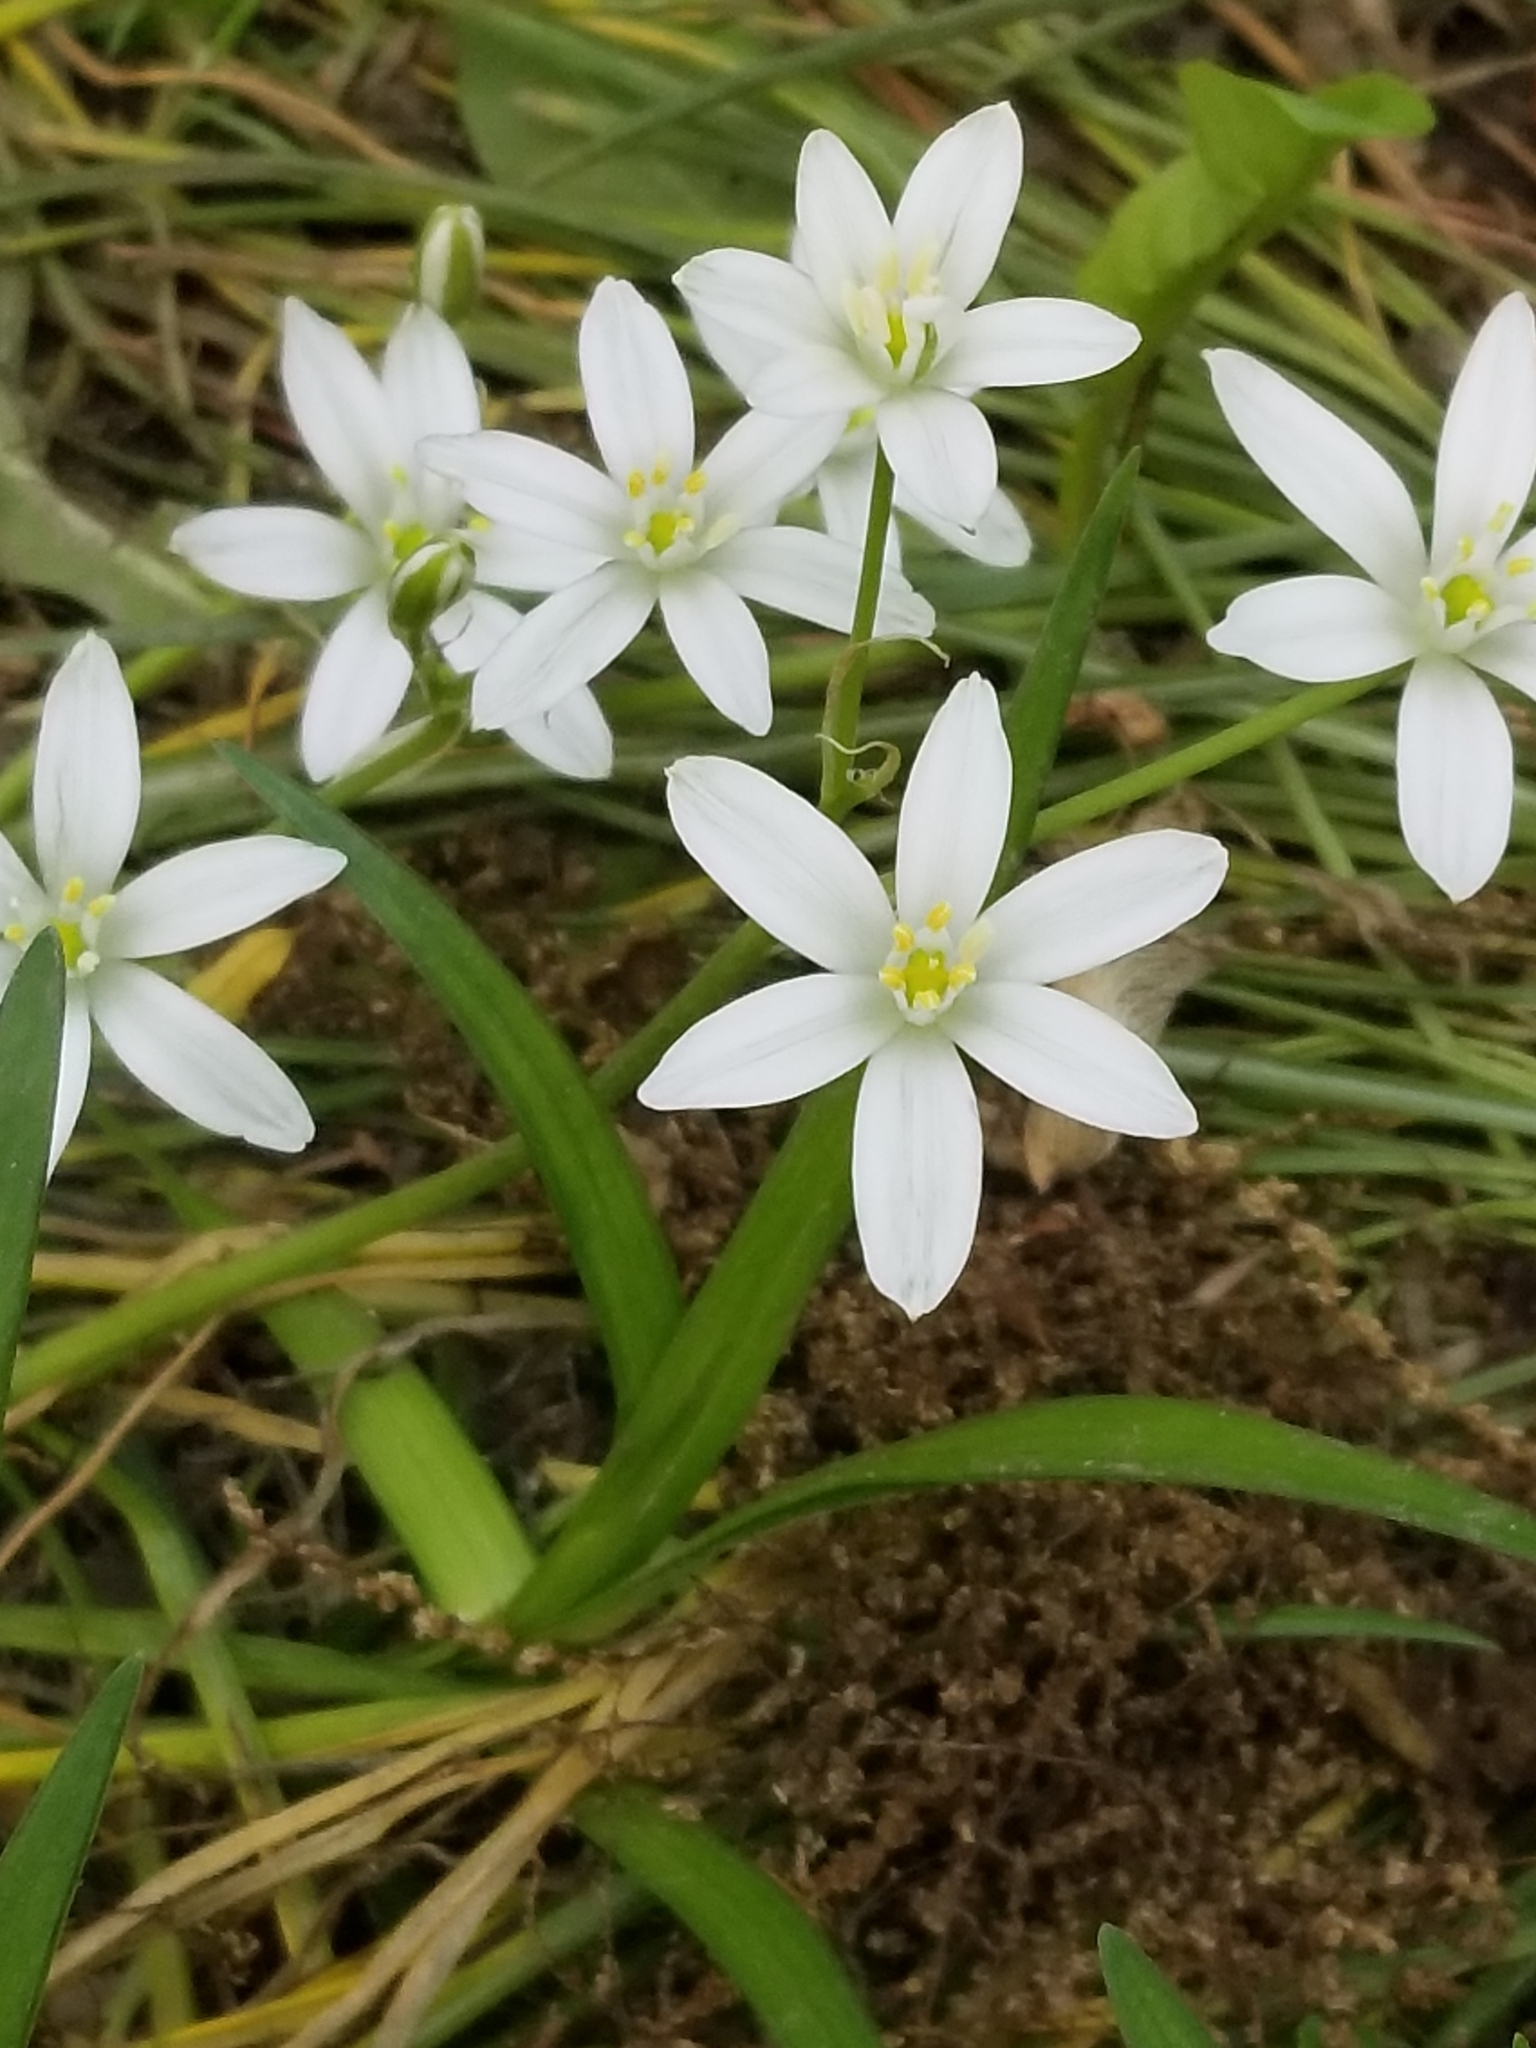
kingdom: Plantae
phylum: Tracheophyta
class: Liliopsida
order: Asparagales
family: Asparagaceae
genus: Ornithogalum
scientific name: Ornithogalum umbellatum
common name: Garden star-of-bethlehem
